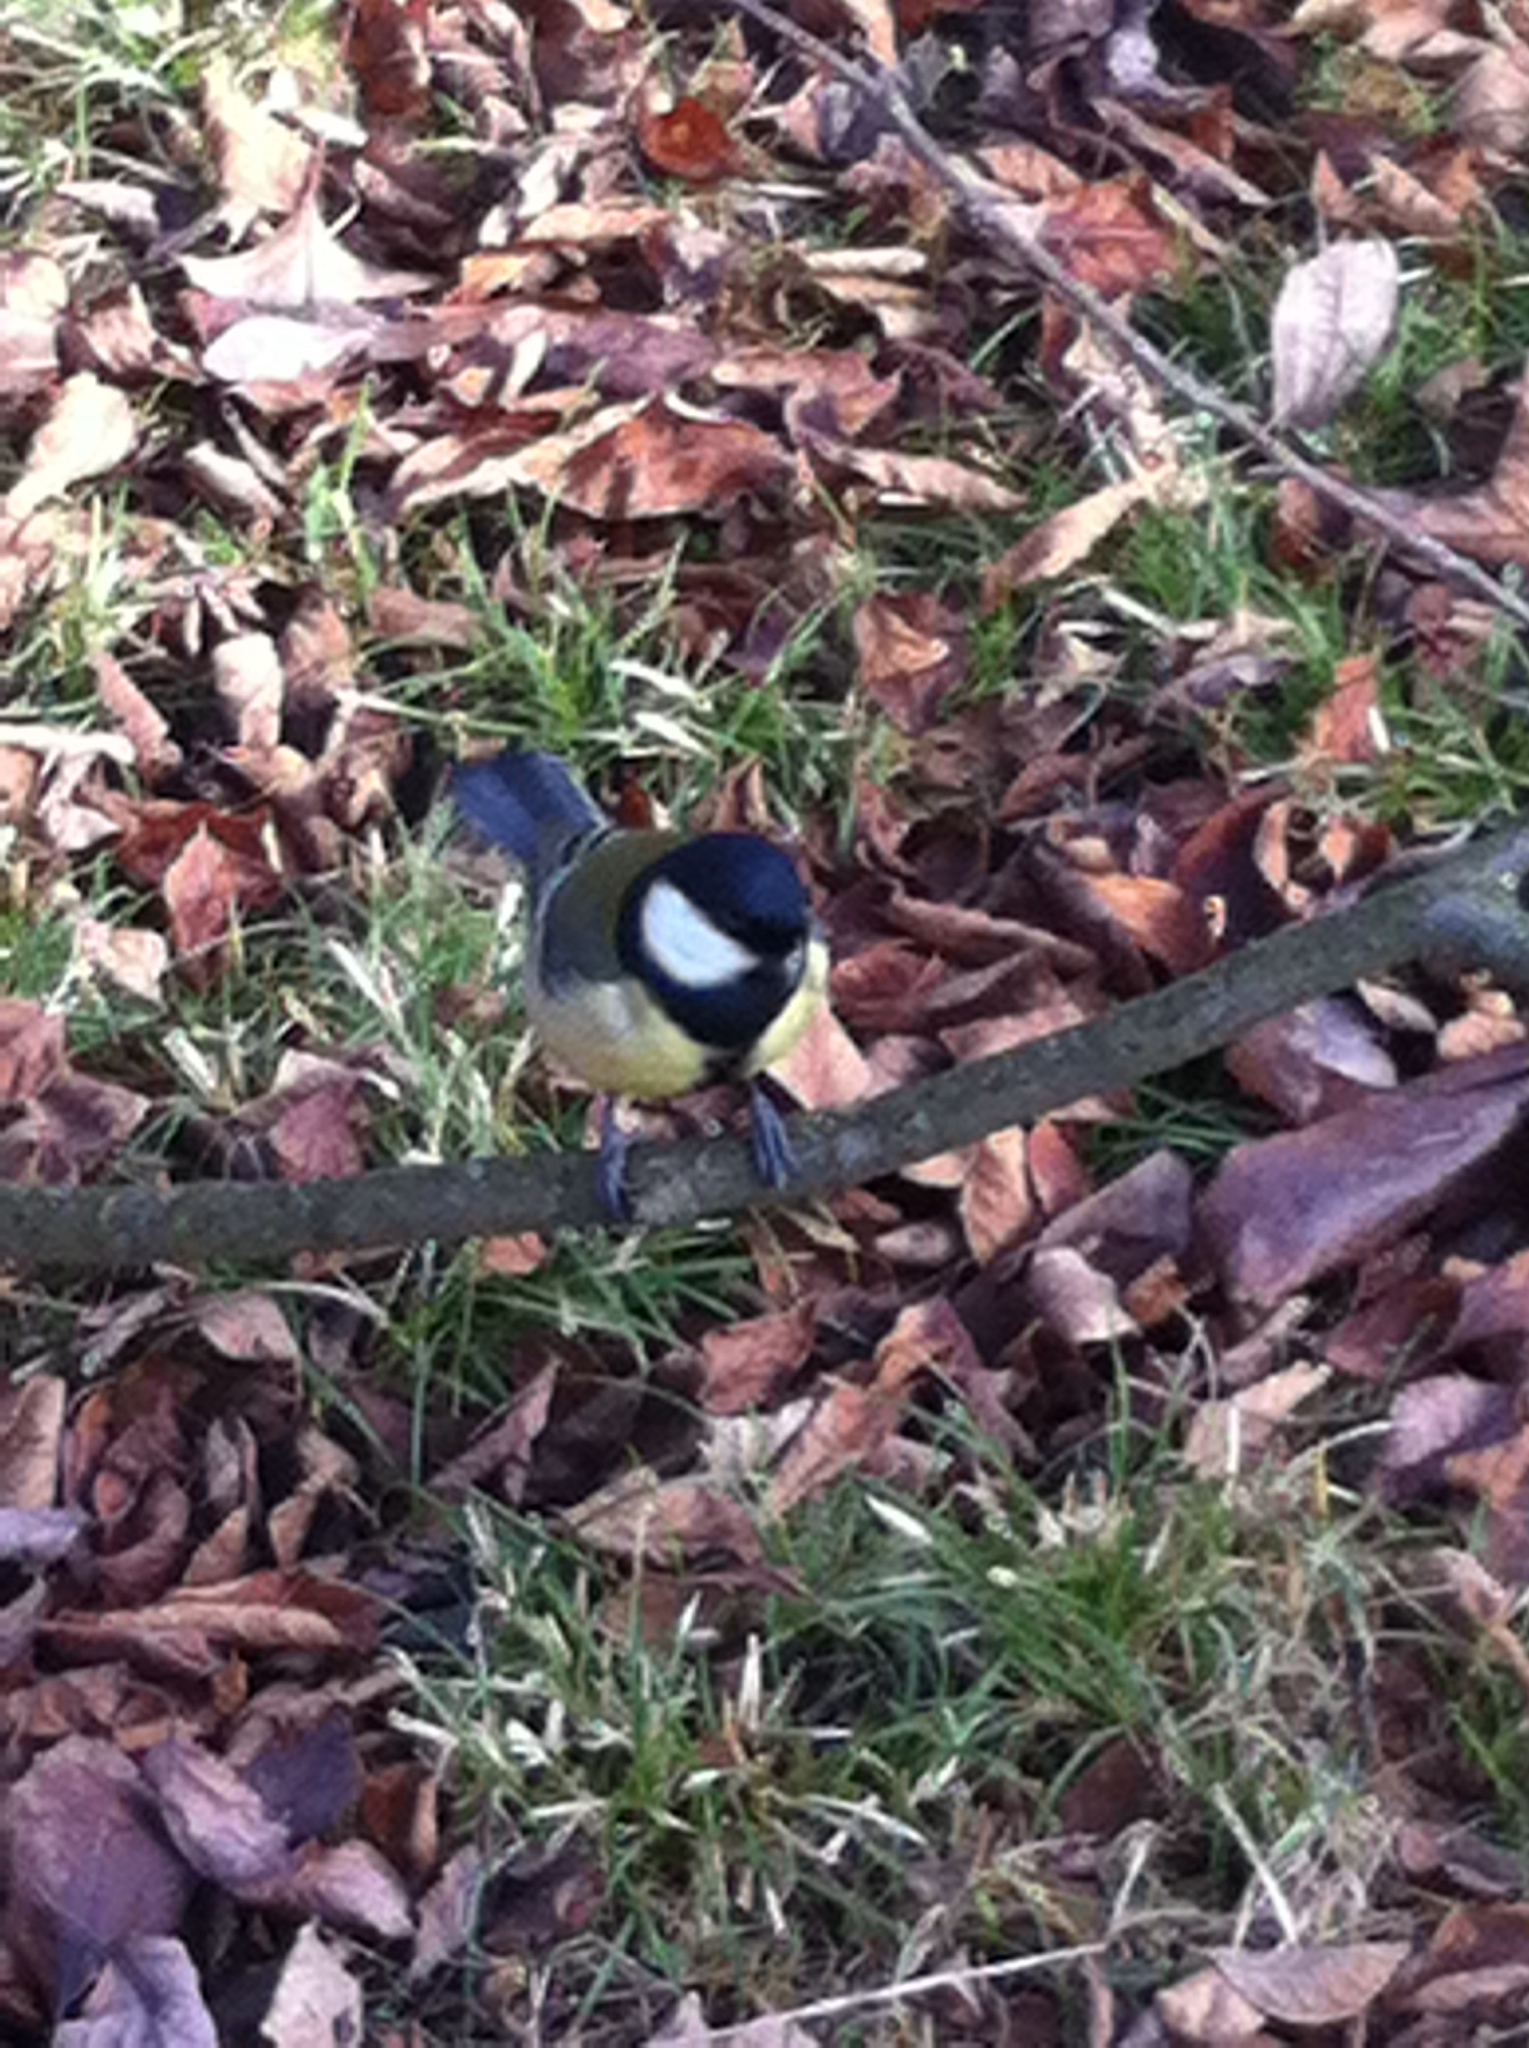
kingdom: Animalia
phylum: Chordata
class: Aves
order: Passeriformes
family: Paridae
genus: Parus
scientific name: Parus major
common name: Great tit
